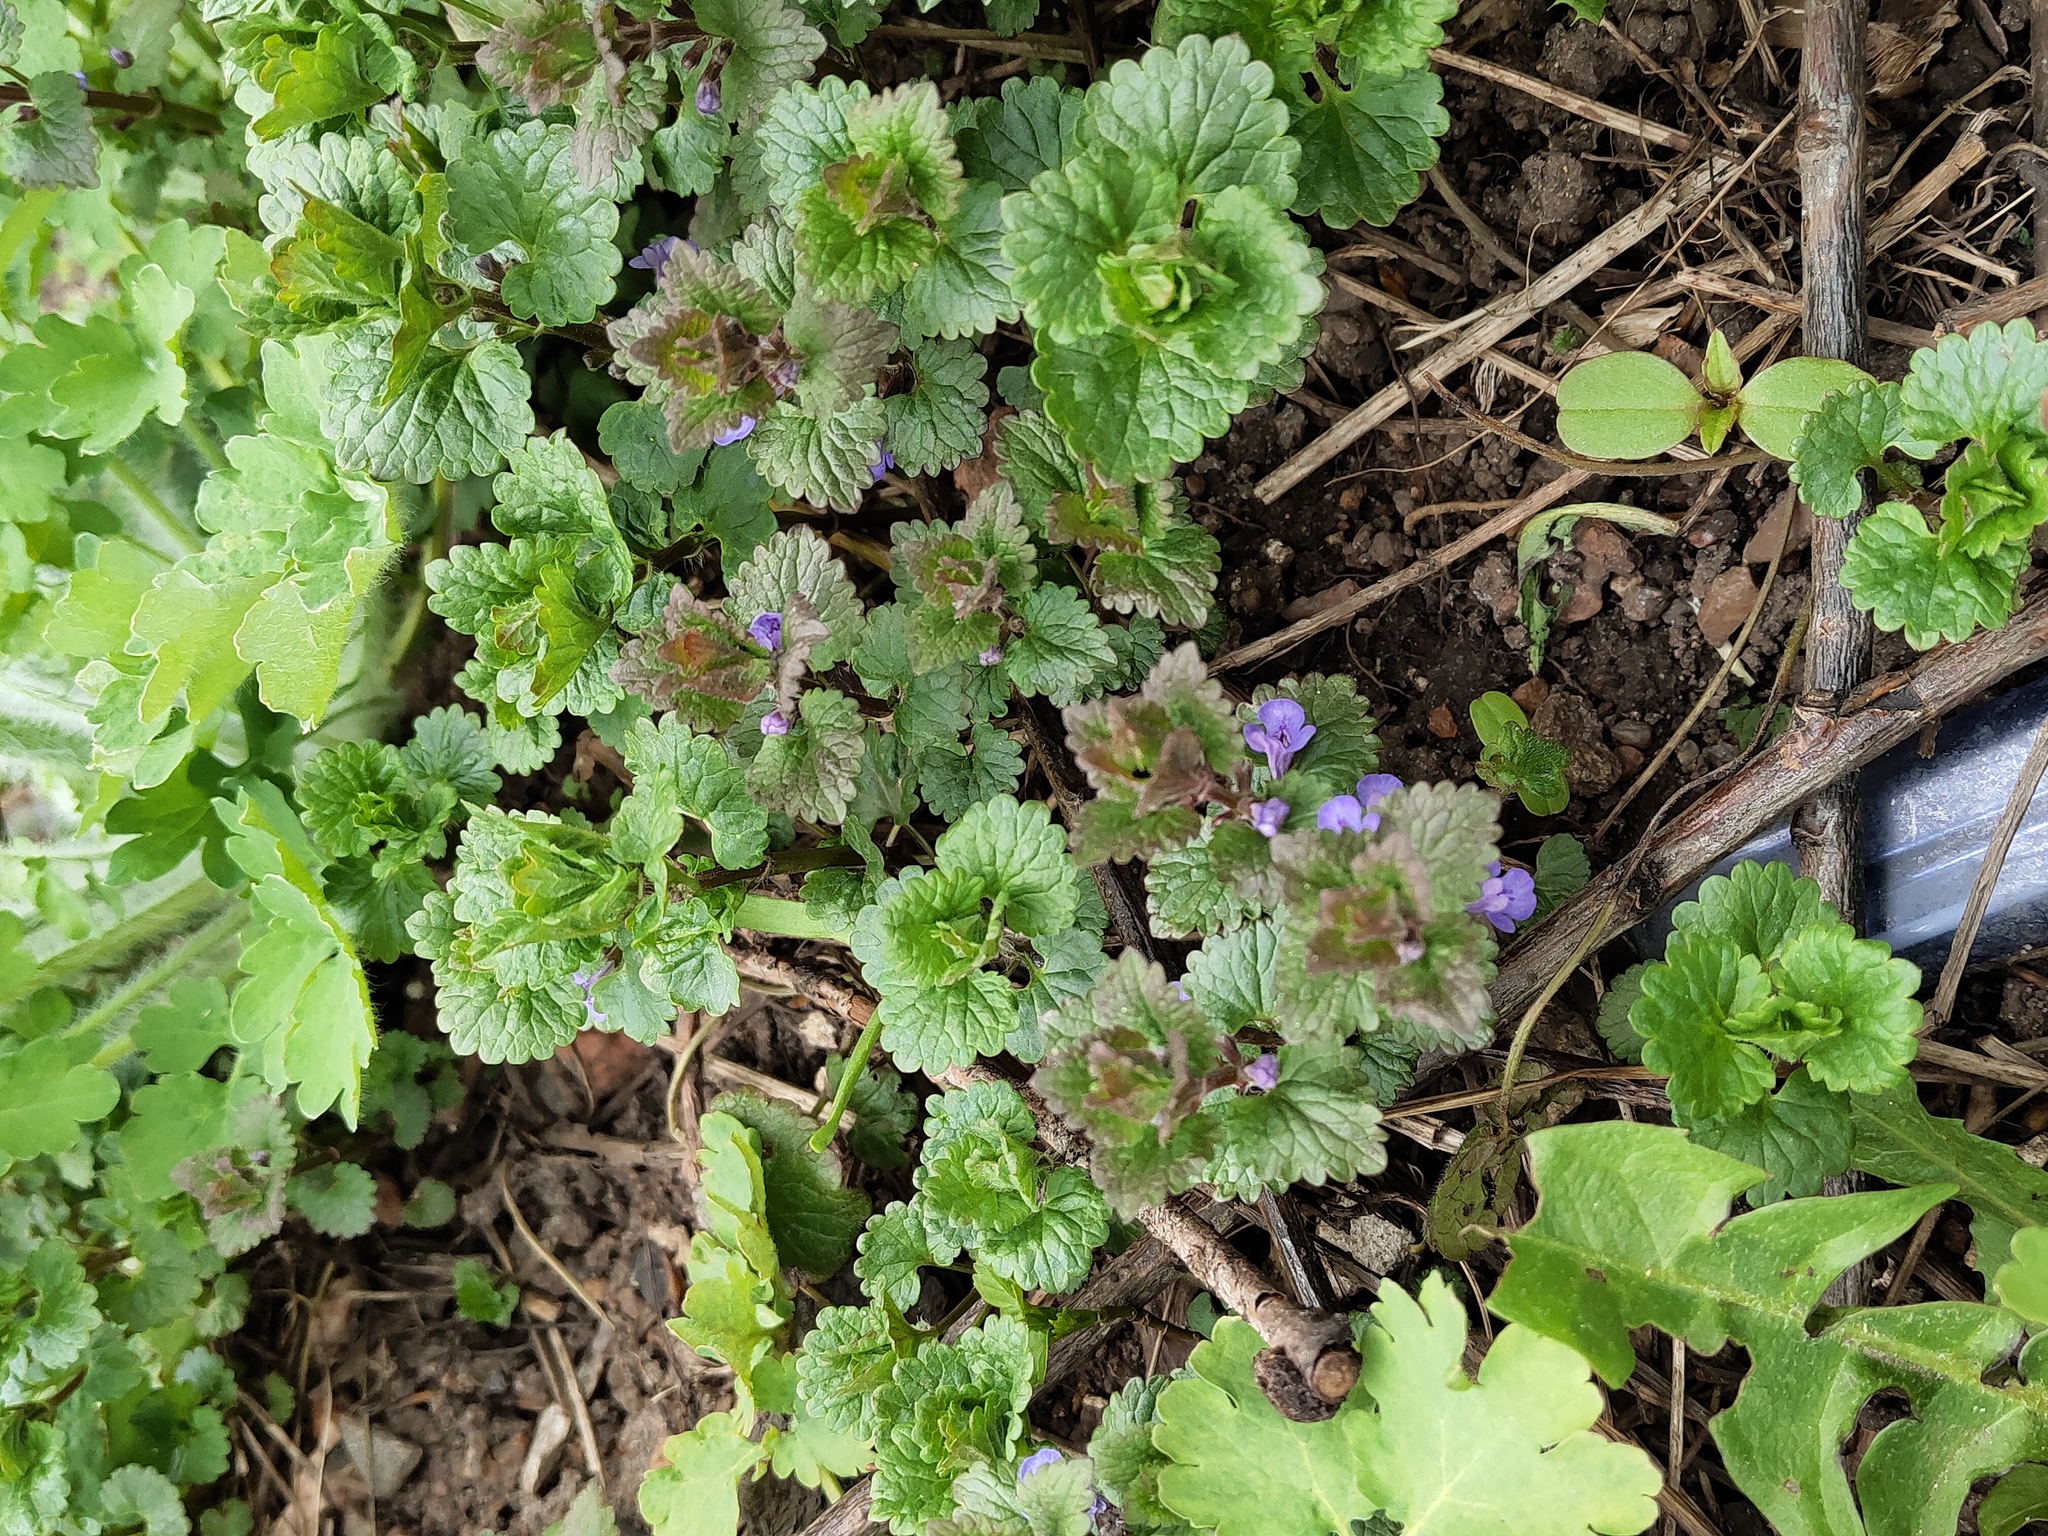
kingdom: Plantae
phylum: Tracheophyta
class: Magnoliopsida
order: Lamiales
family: Lamiaceae
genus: Glechoma
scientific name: Glechoma hederacea
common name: Ground ivy
